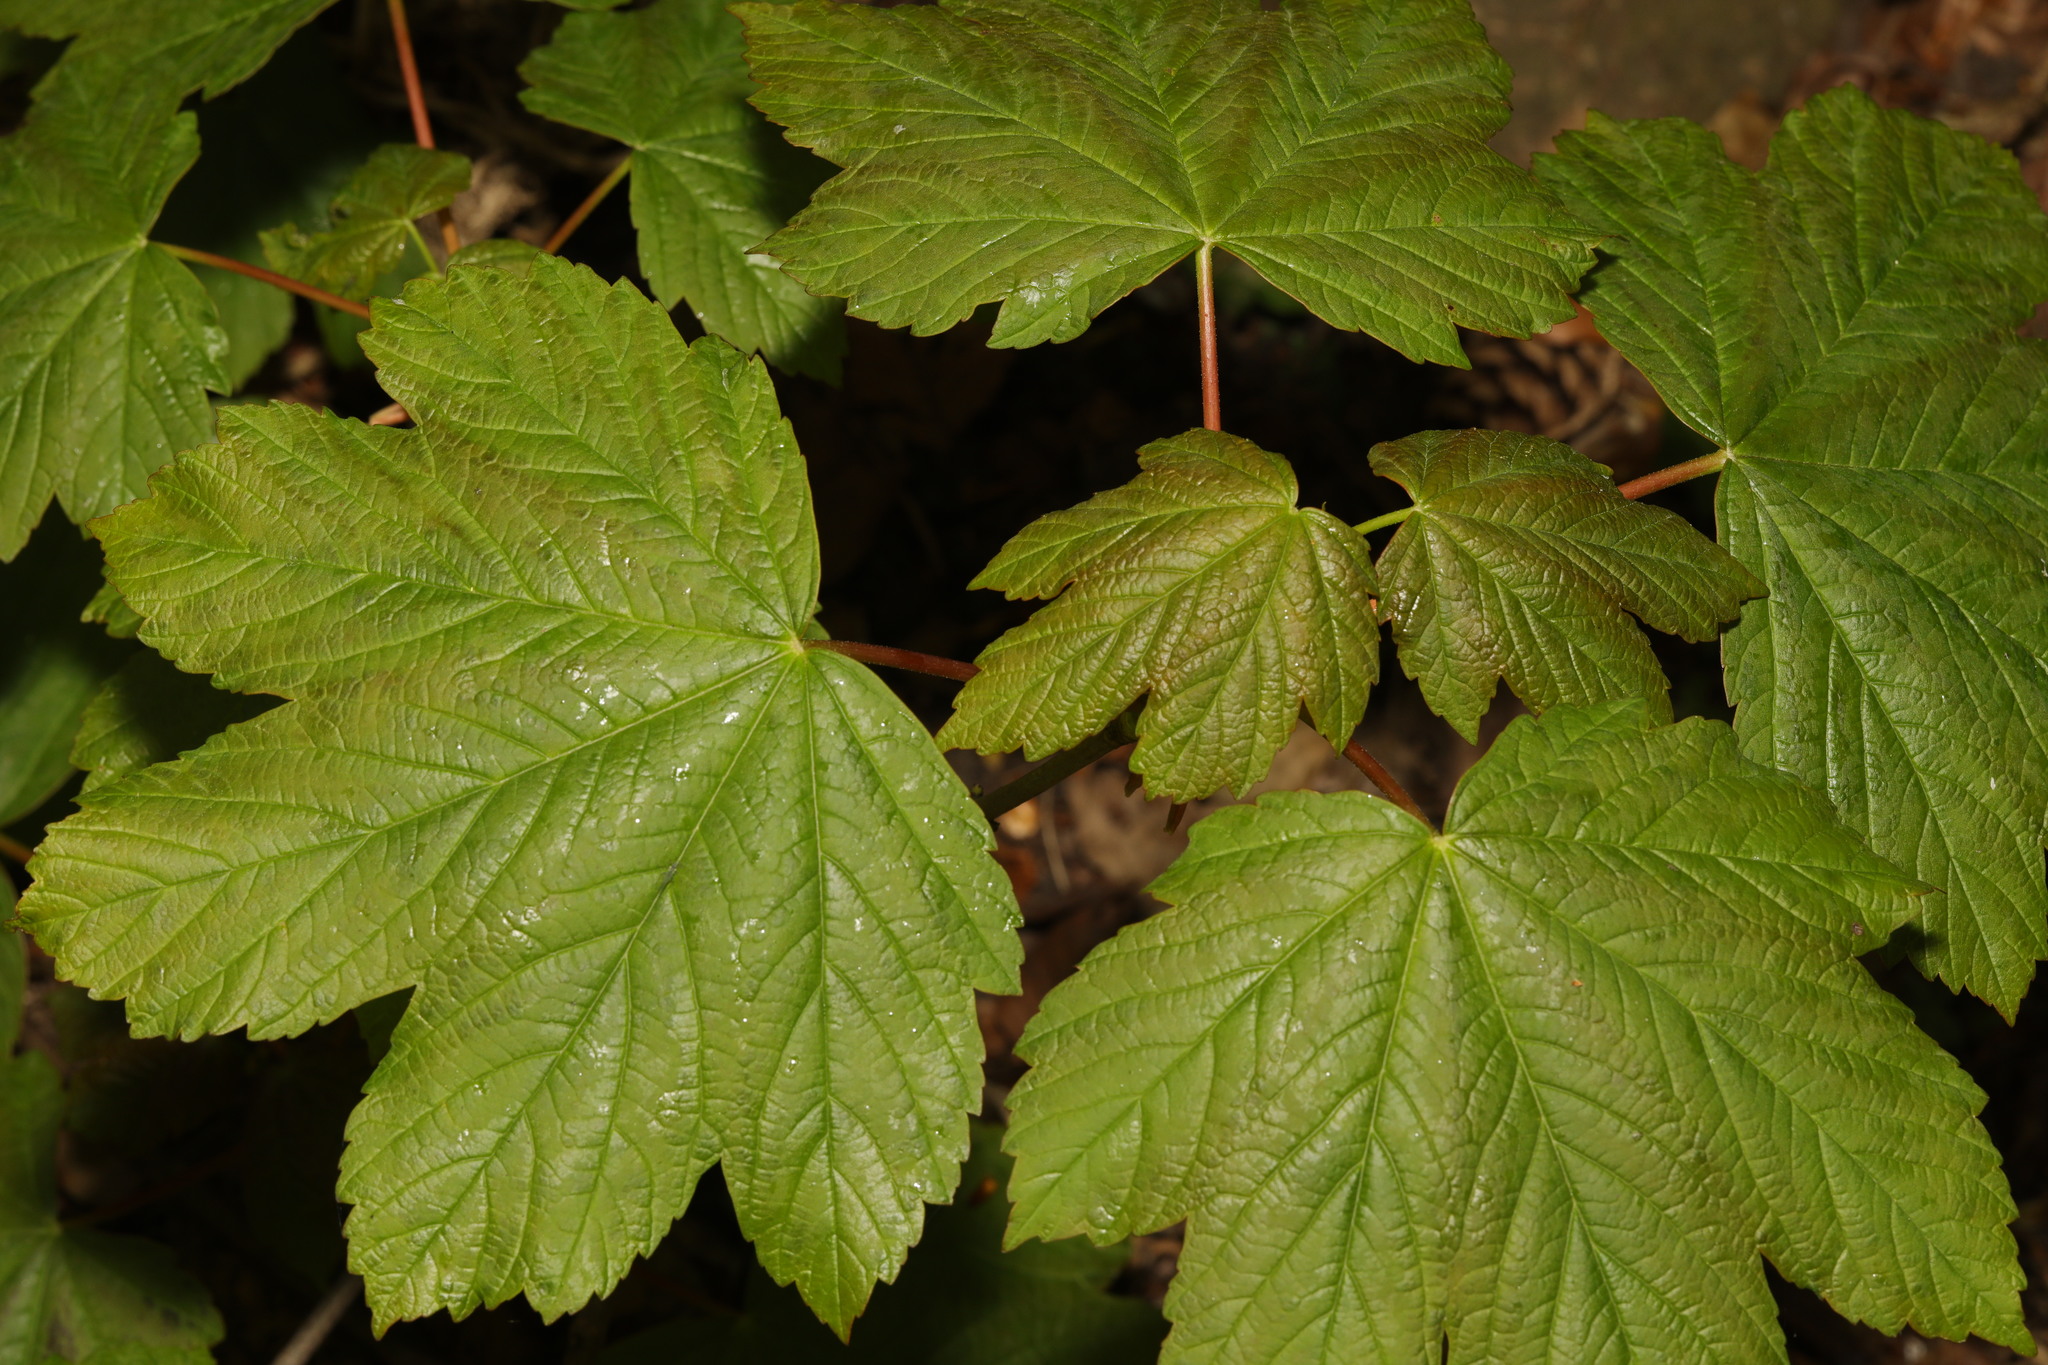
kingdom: Plantae
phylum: Tracheophyta
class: Magnoliopsida
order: Sapindales
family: Sapindaceae
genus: Acer
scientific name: Acer pseudoplatanus
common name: Sycamore
